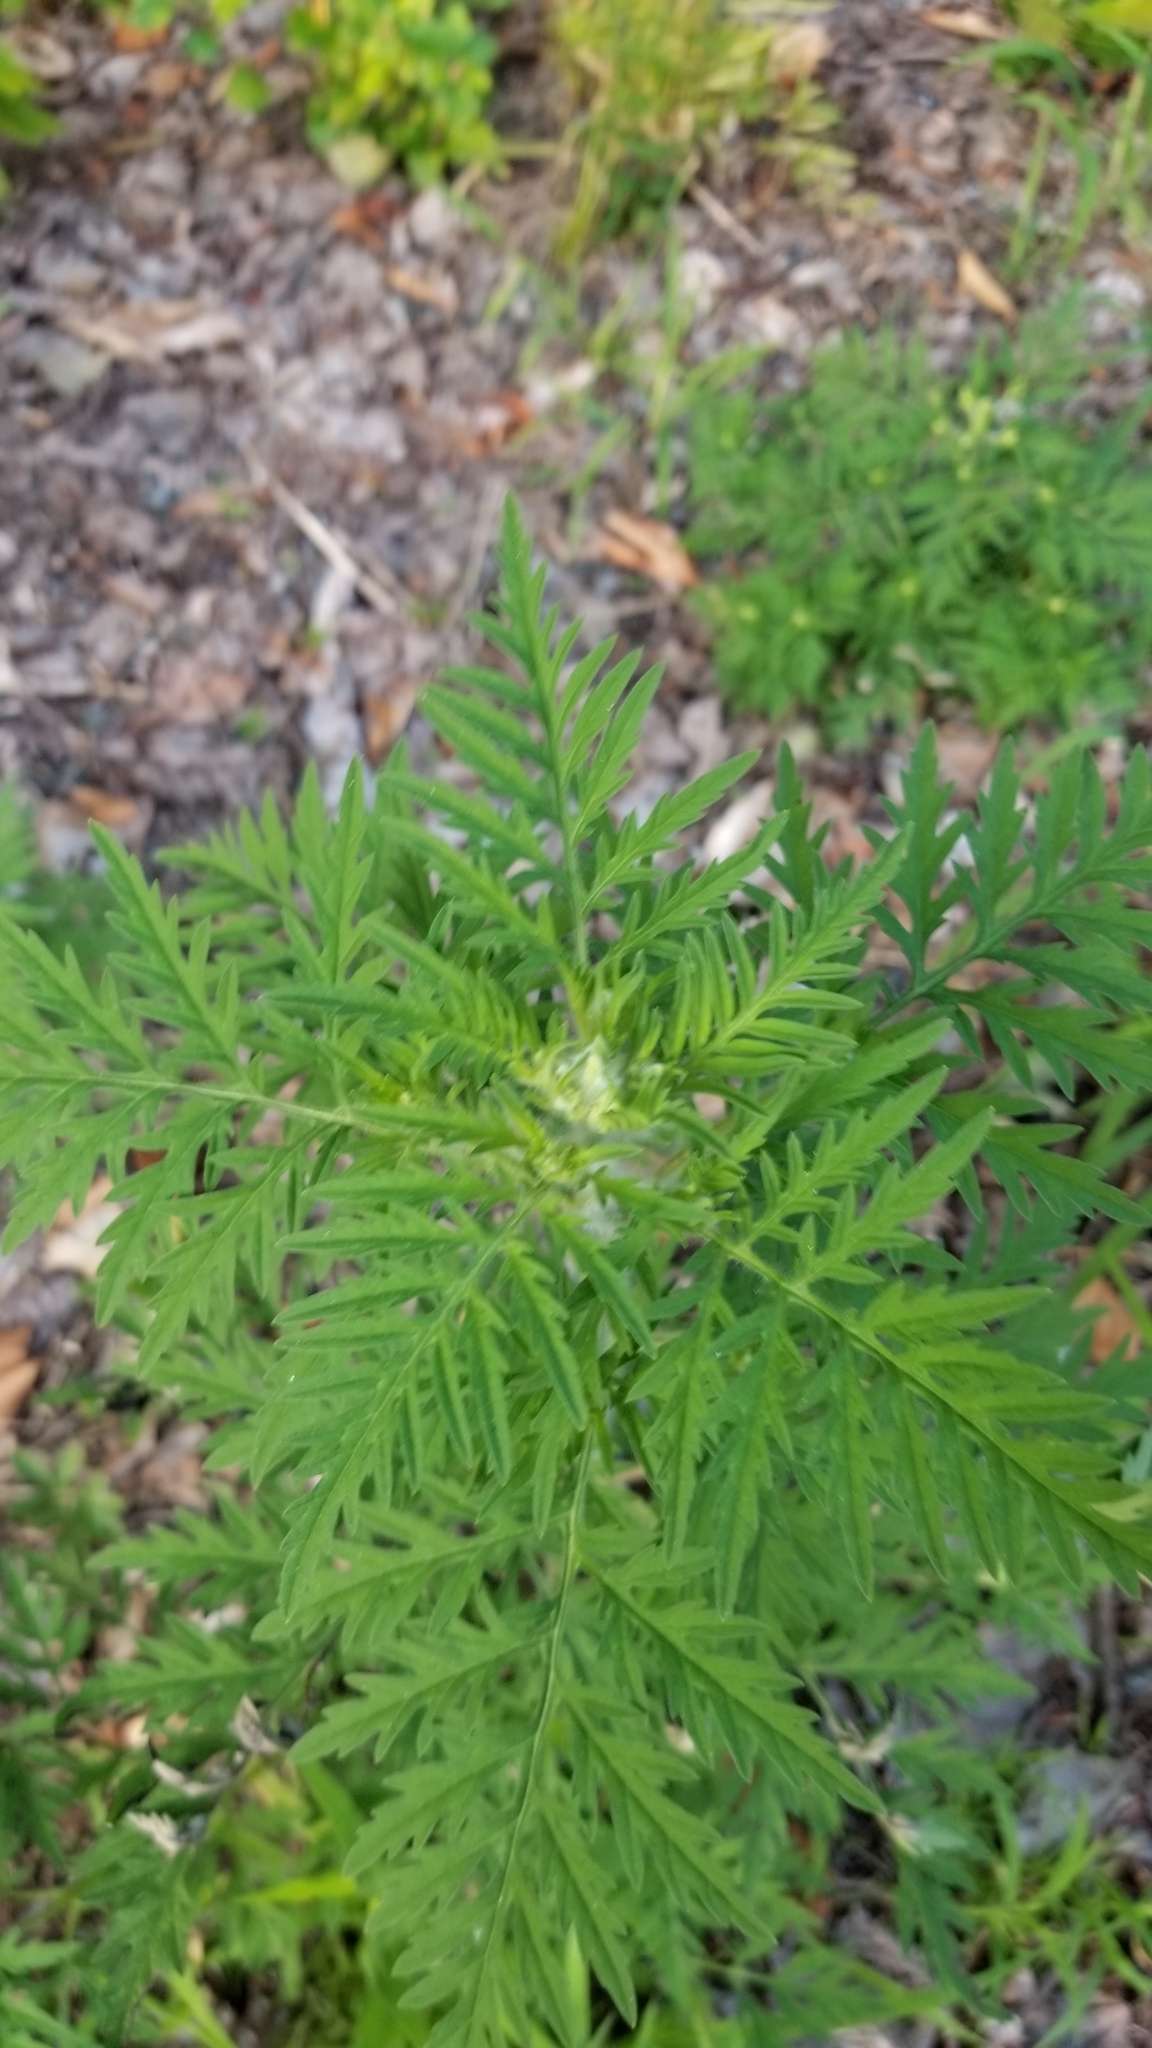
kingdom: Plantae
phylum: Tracheophyta
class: Magnoliopsida
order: Asterales
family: Asteraceae
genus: Ambrosia
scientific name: Ambrosia artemisiifolia
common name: Annual ragweed
